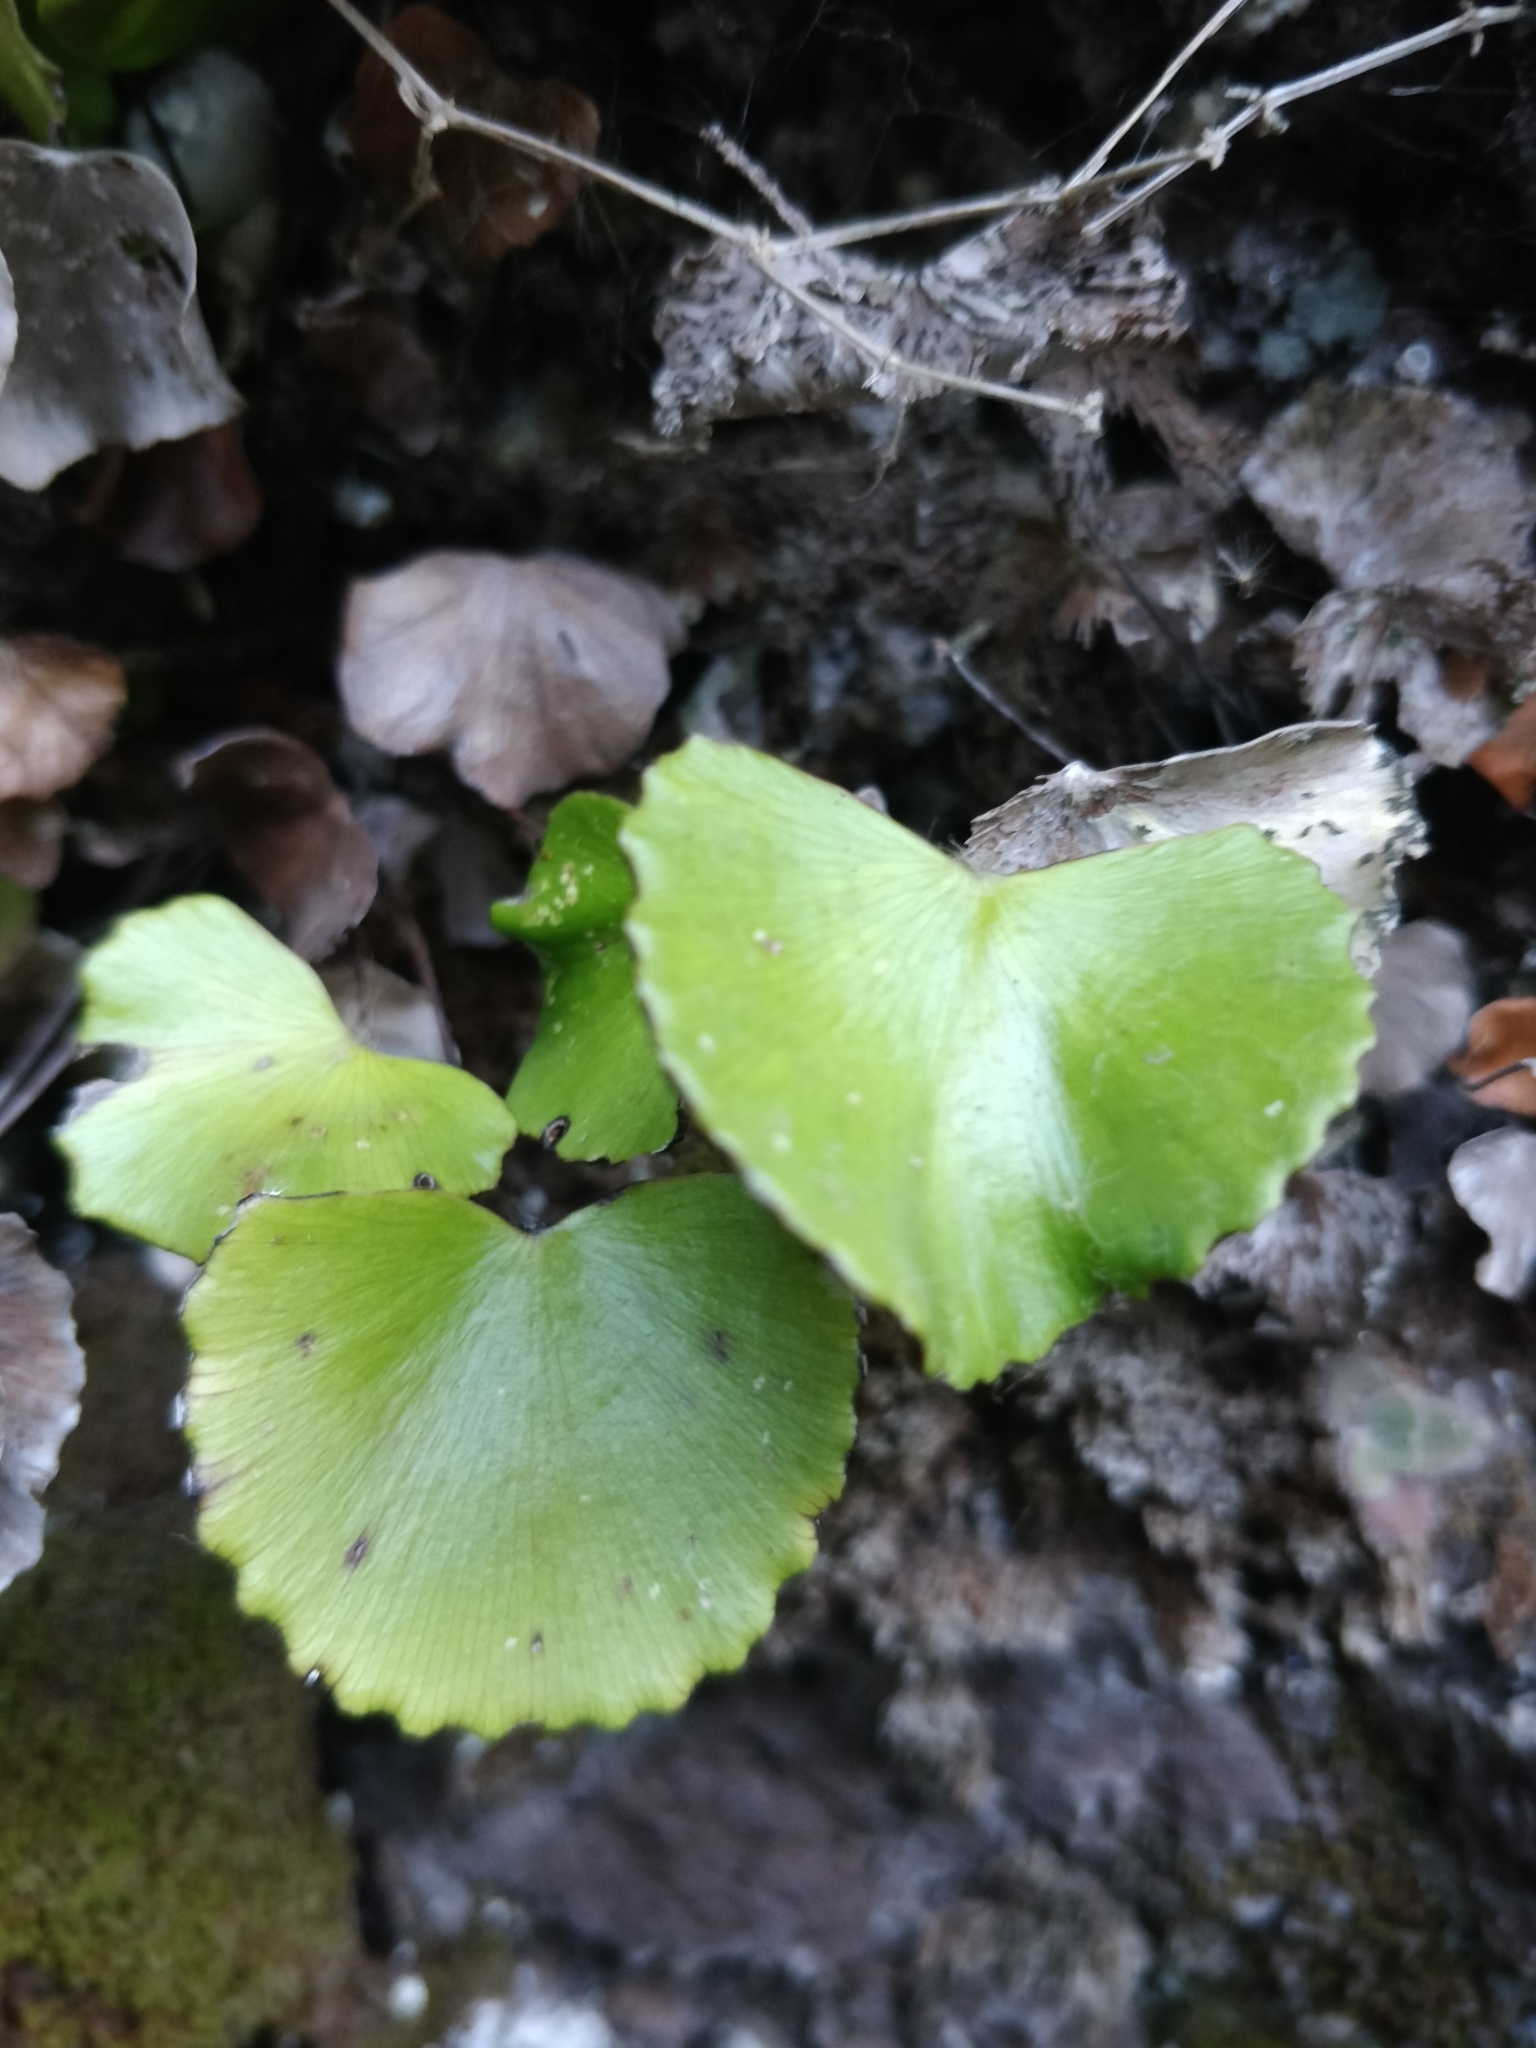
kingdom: Plantae
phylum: Tracheophyta
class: Polypodiopsida
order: Polypodiales
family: Pteridaceae
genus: Adiantum
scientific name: Adiantum reniforme
